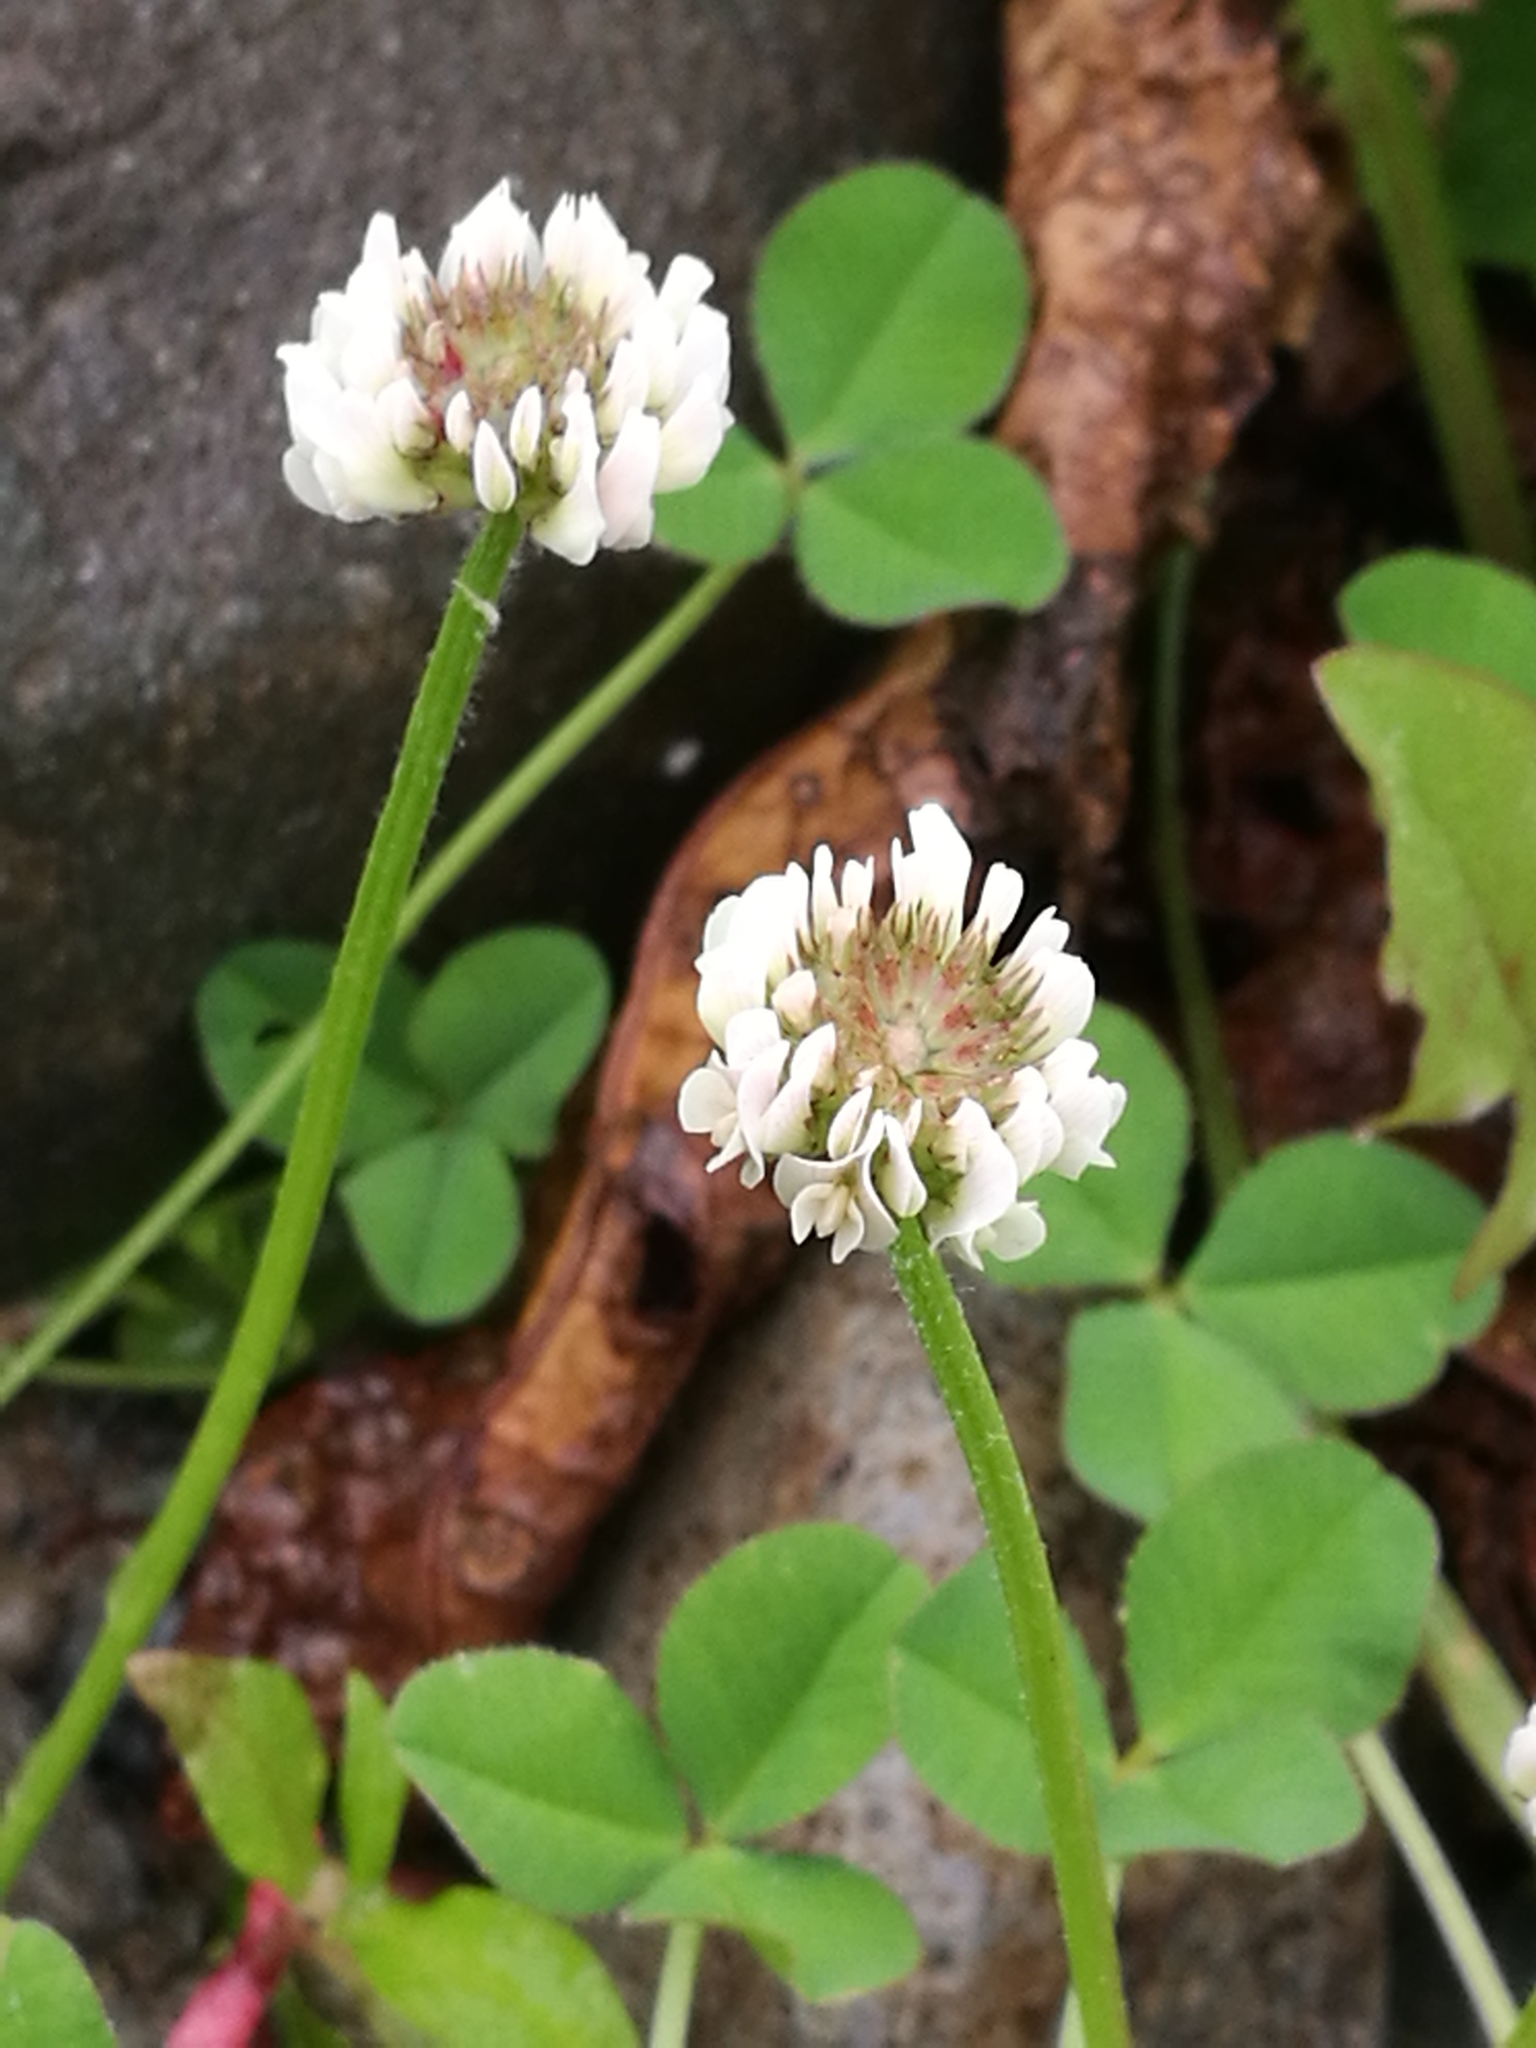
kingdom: Plantae
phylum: Tracheophyta
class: Magnoliopsida
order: Fabales
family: Fabaceae
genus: Trifolium
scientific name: Trifolium repens
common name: White clover
